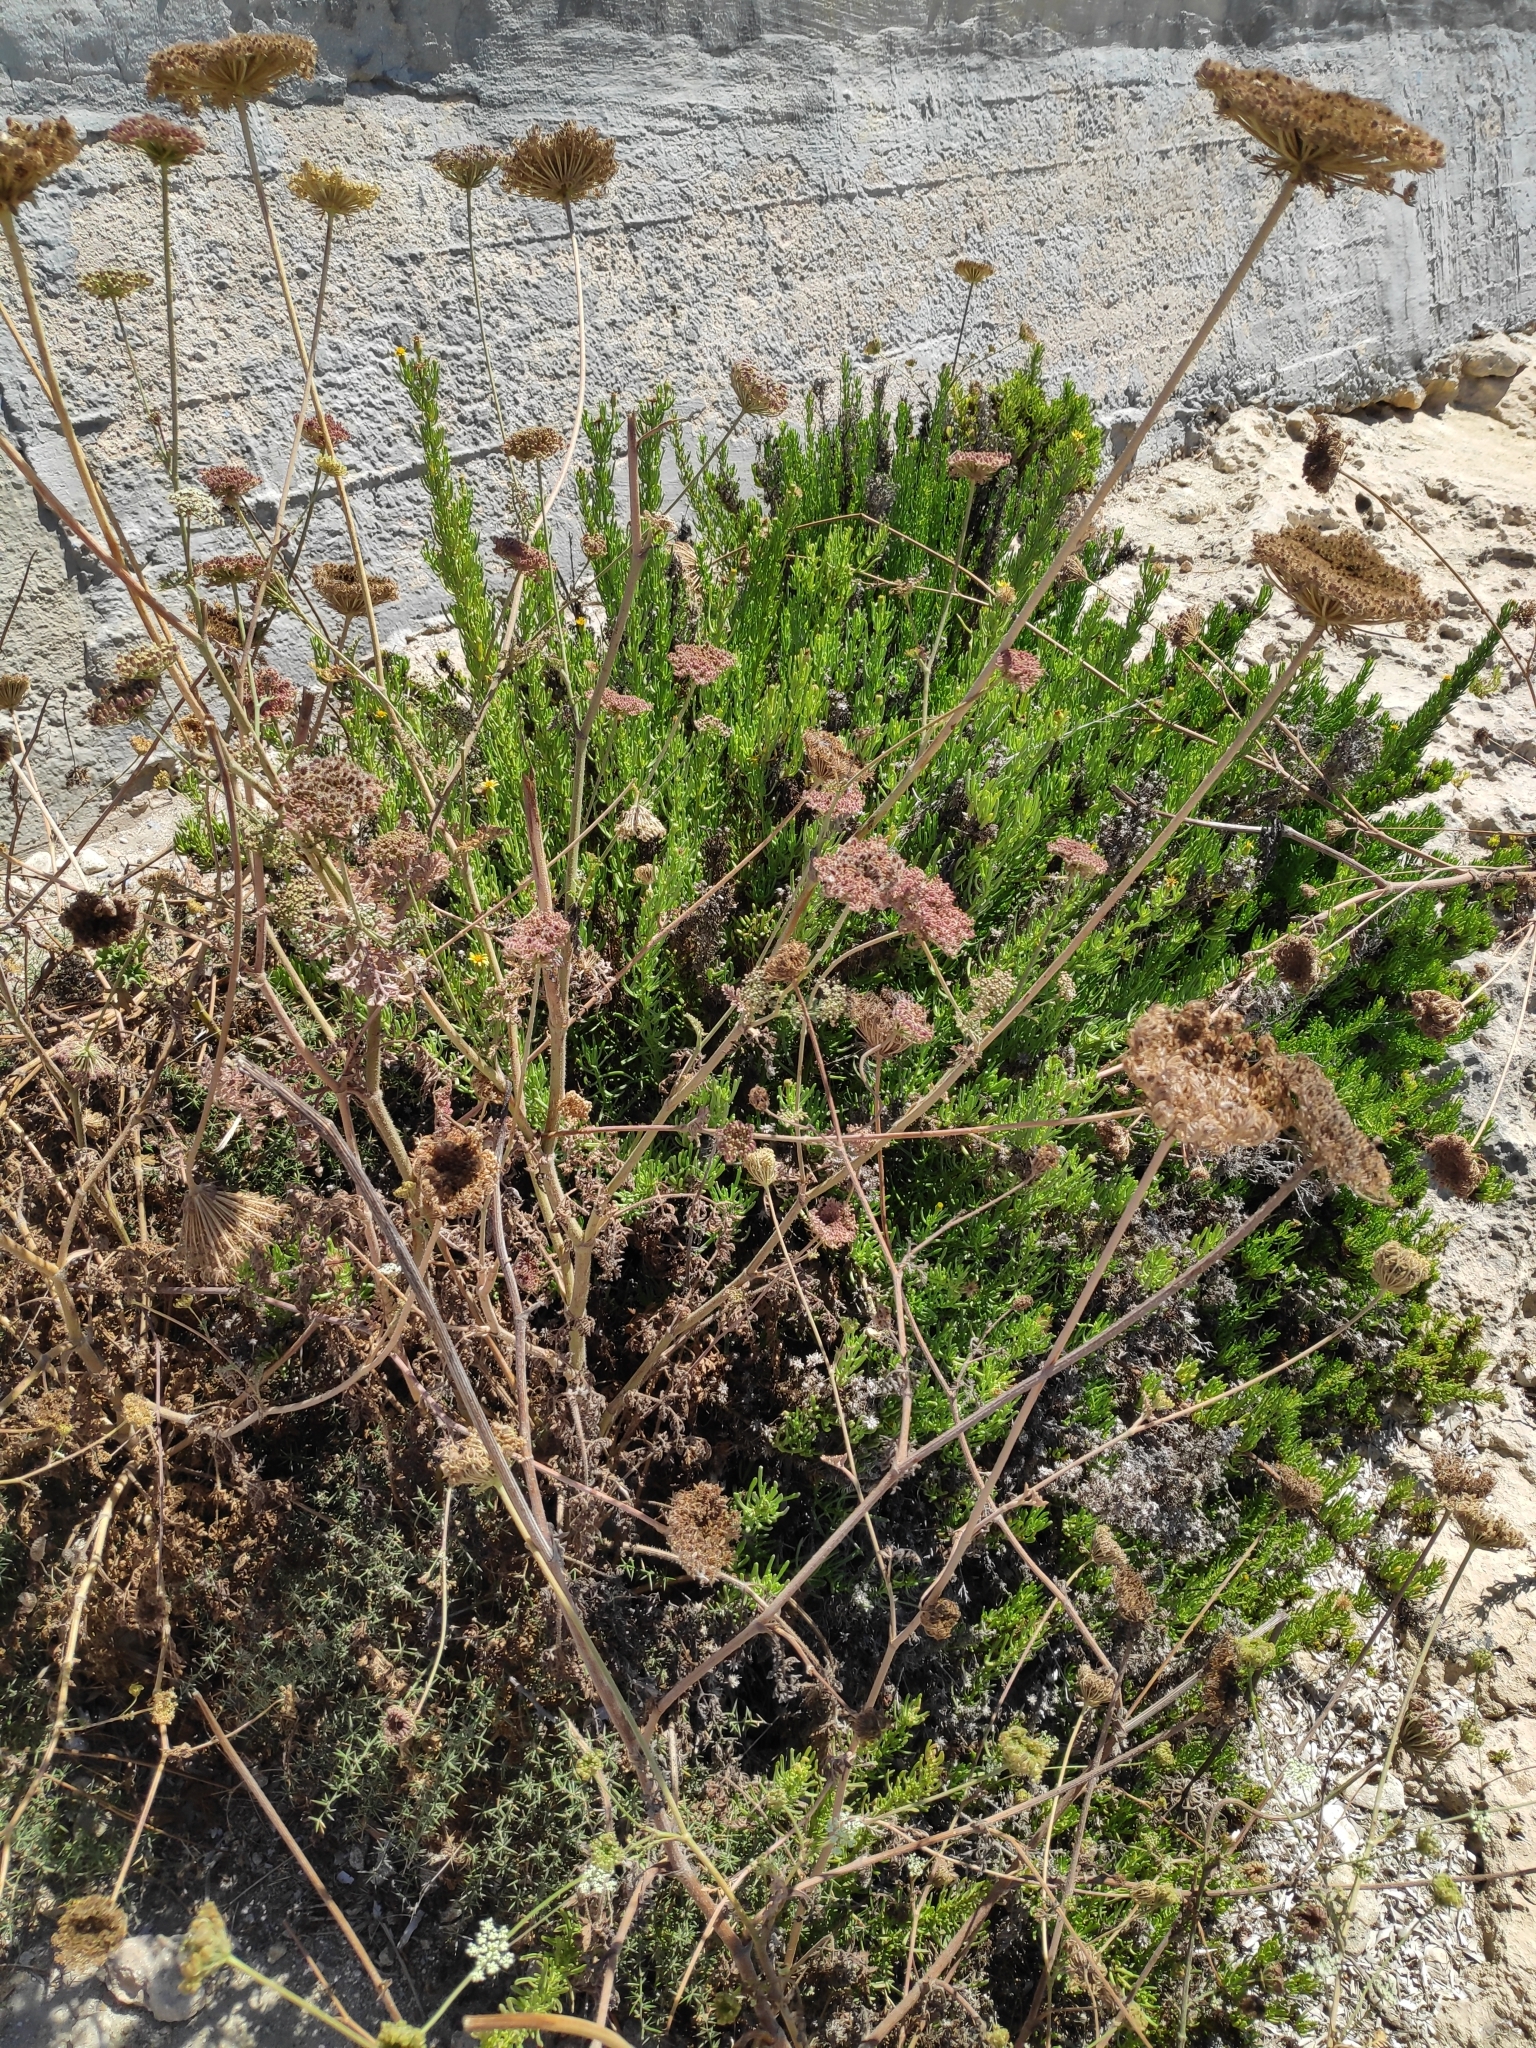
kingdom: Plantae
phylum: Tracheophyta
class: Magnoliopsida
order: Asterales
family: Asteraceae
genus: Limbarda
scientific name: Limbarda crithmoides
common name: Golden samphire
